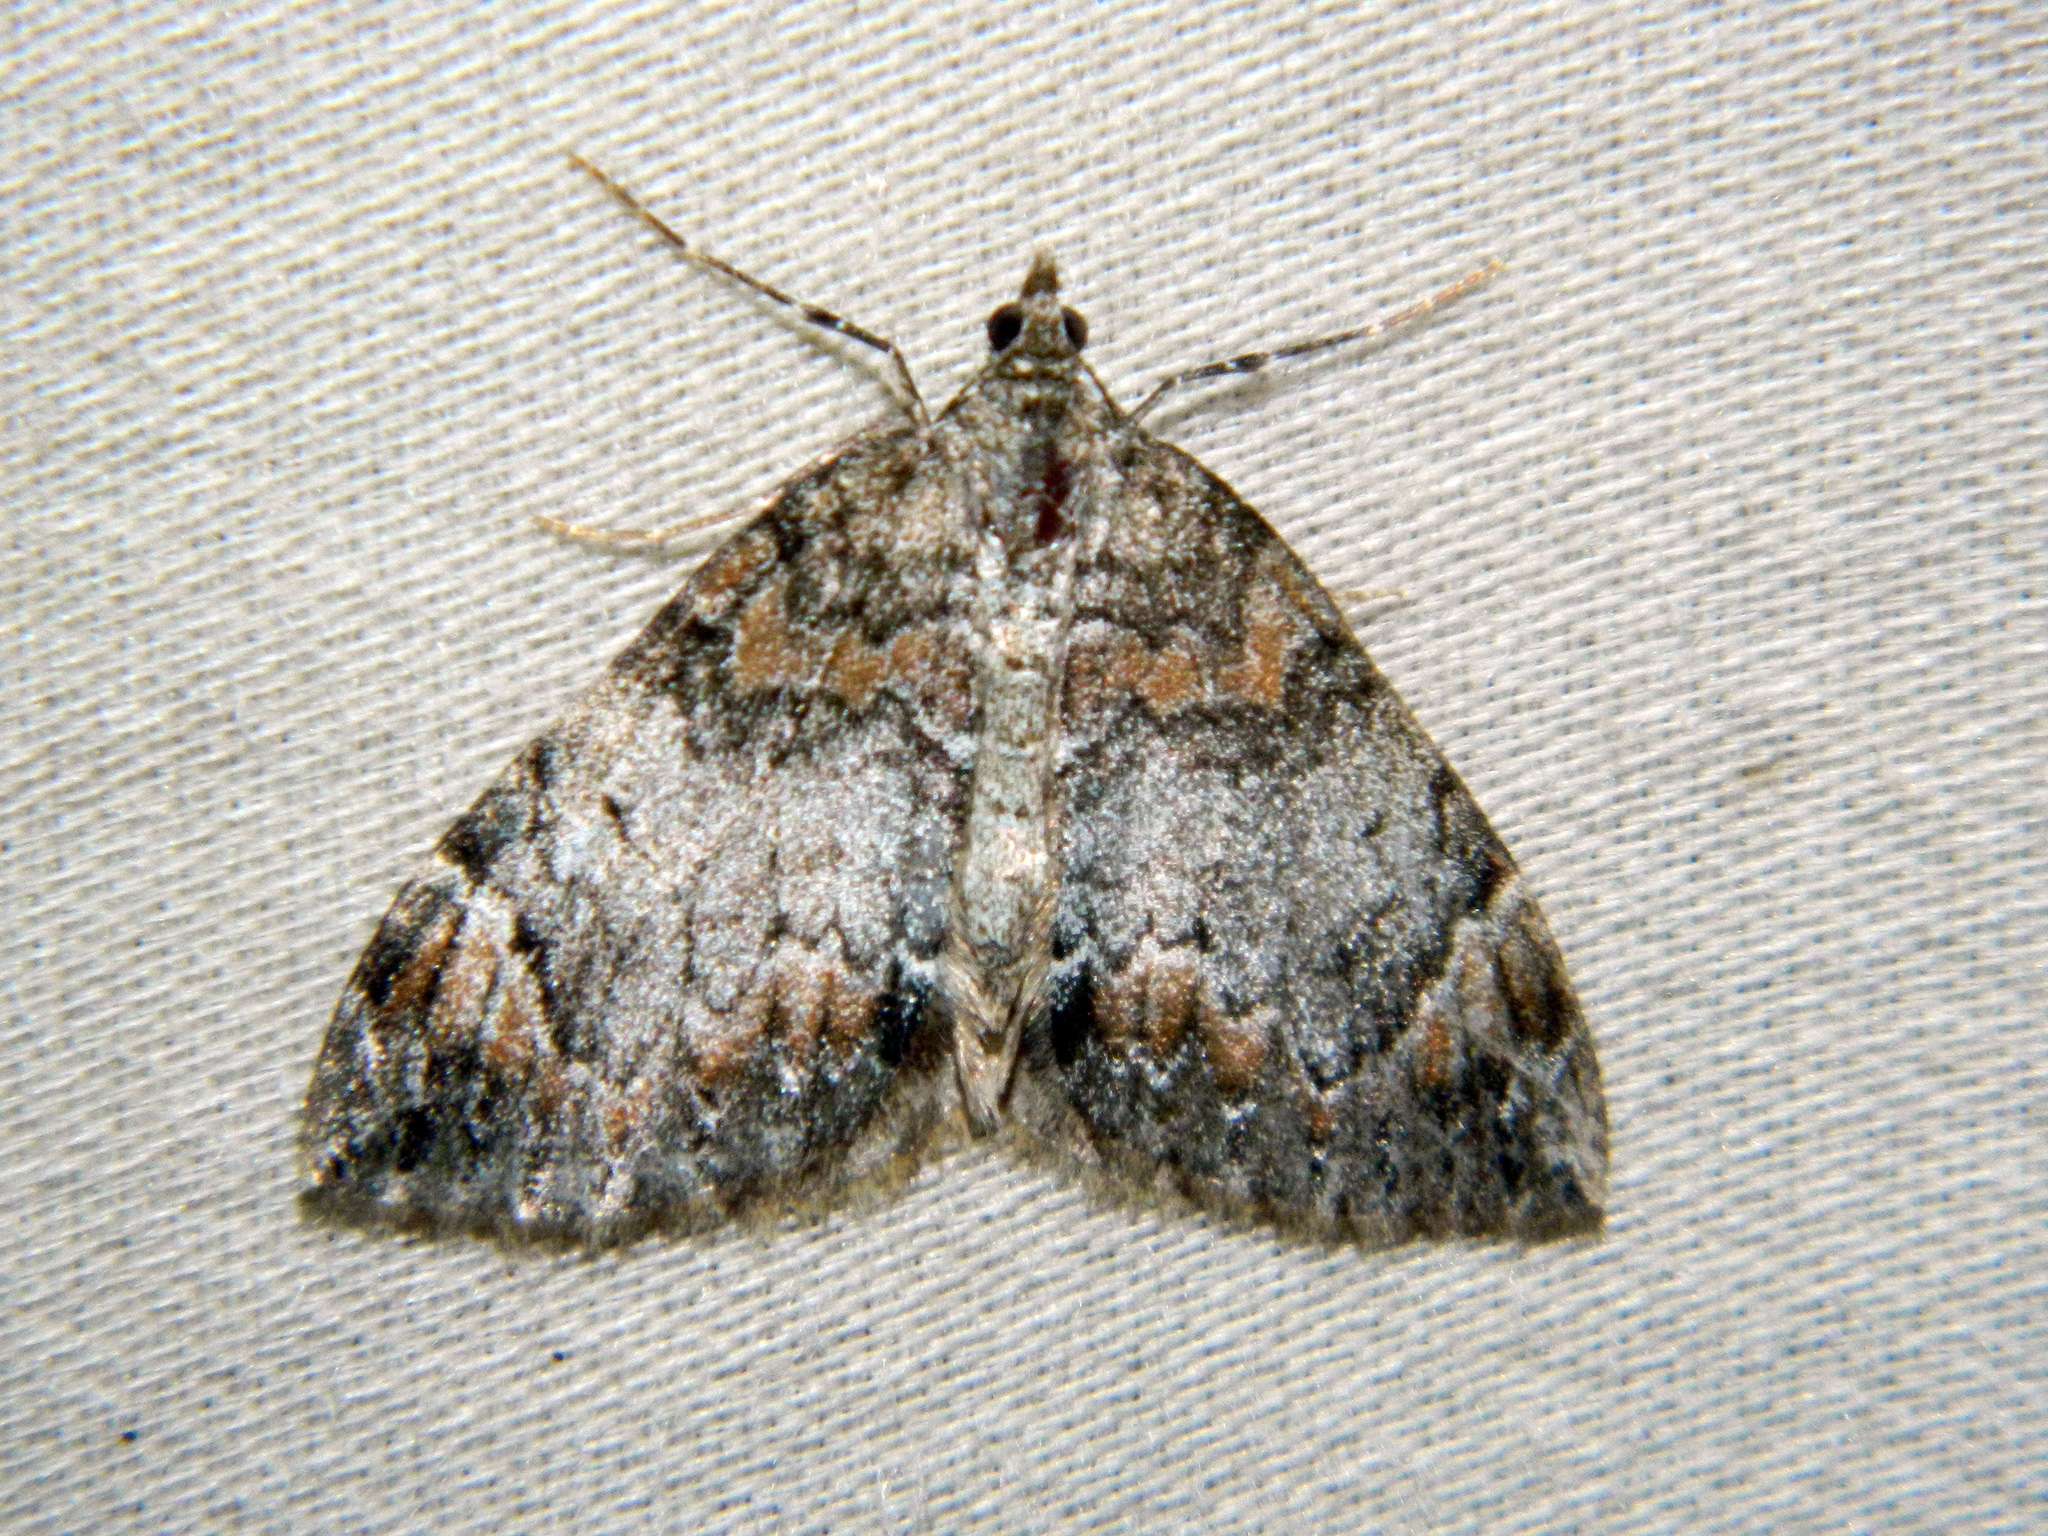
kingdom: Animalia
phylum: Arthropoda
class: Insecta
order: Lepidoptera
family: Geometridae
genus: Dysstroma
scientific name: Dysstroma citrata
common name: Dark marbled carpet
